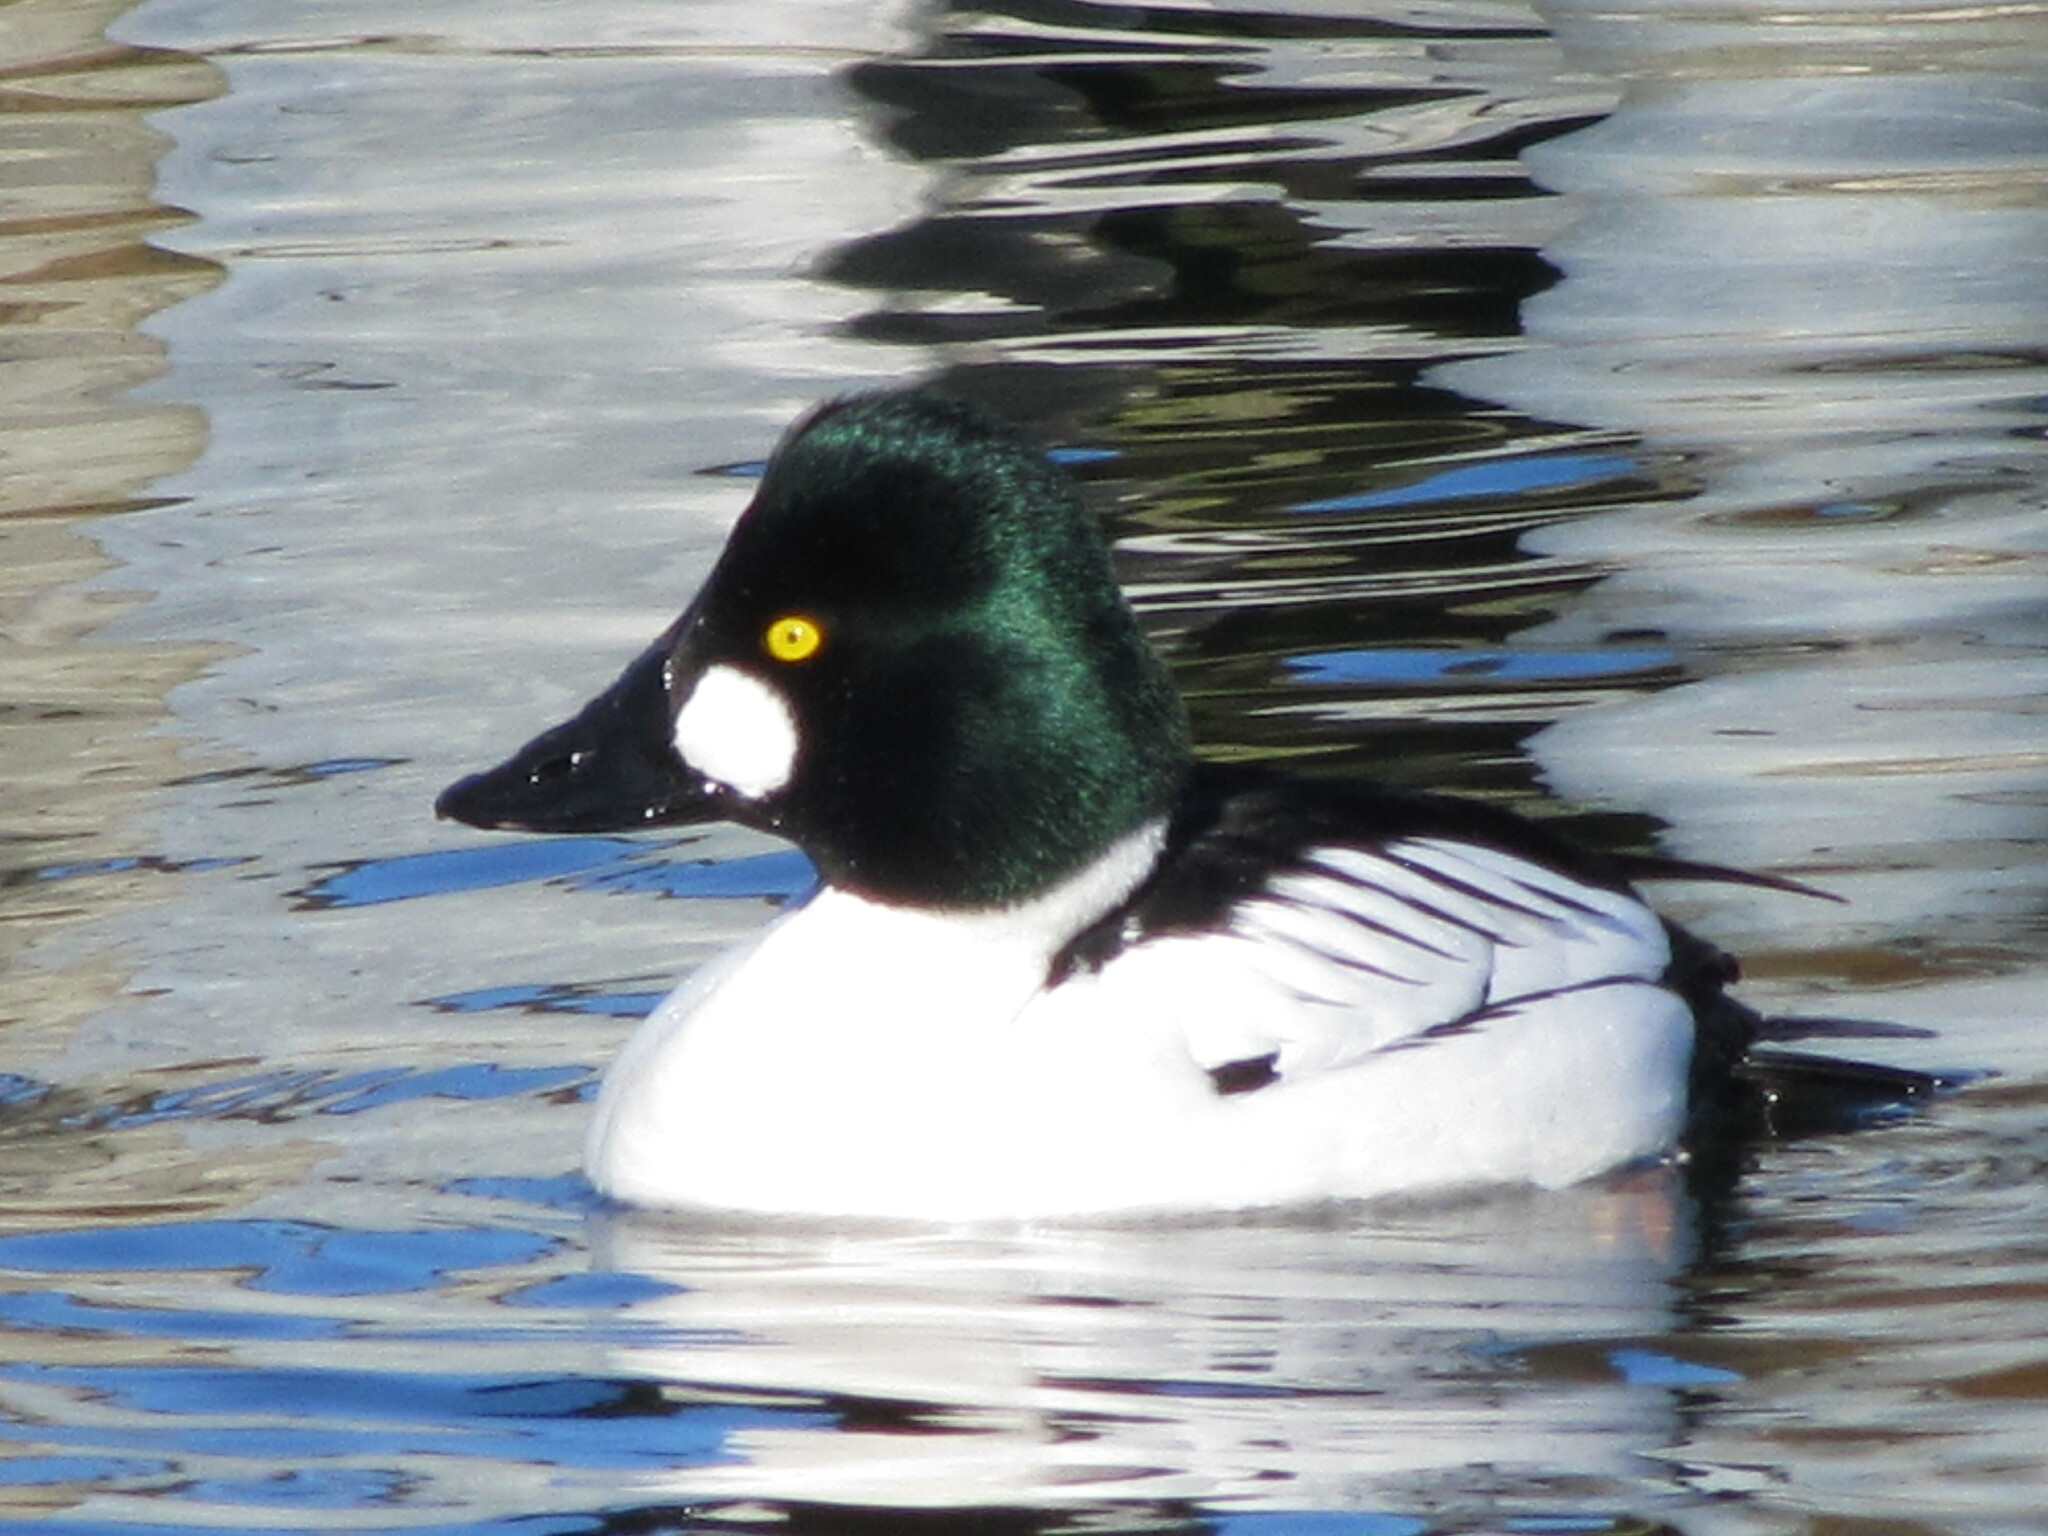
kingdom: Animalia
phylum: Chordata
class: Aves
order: Anseriformes
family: Anatidae
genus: Bucephala
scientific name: Bucephala clangula
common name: Common goldeneye
